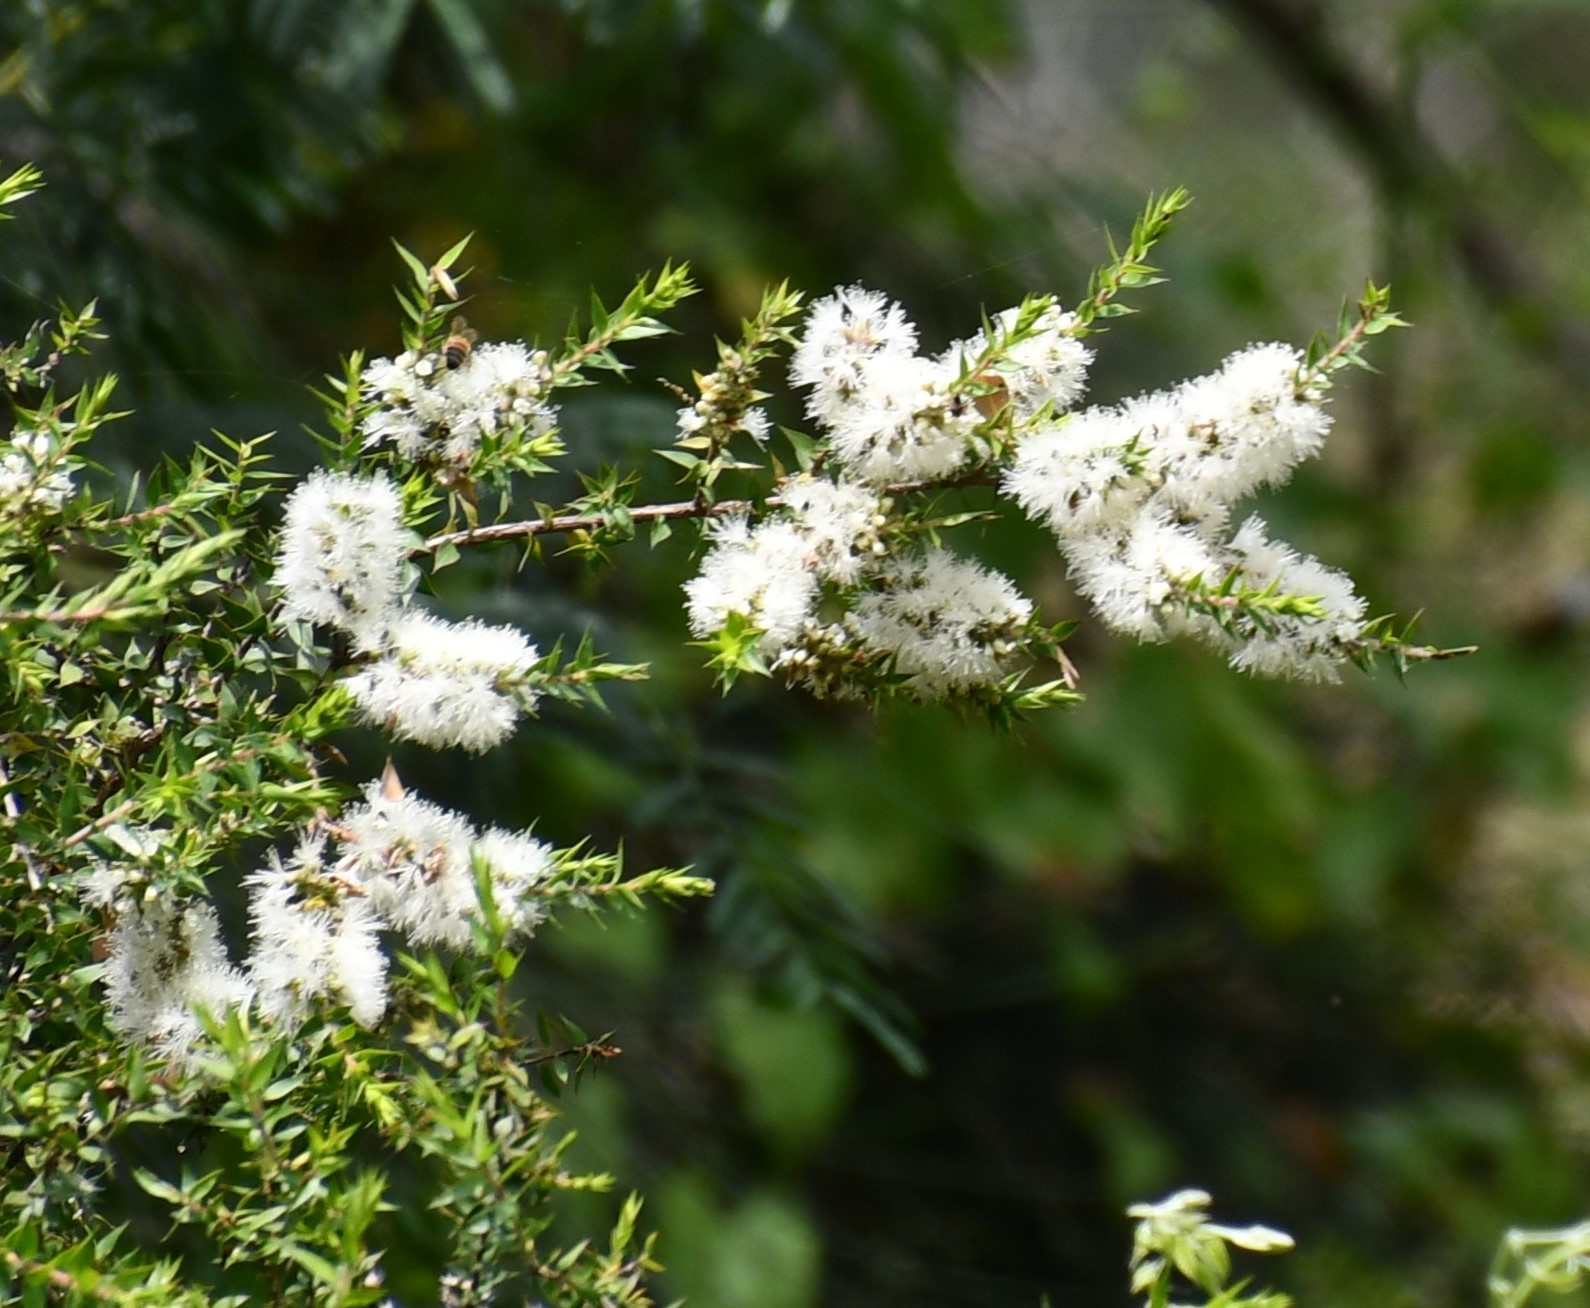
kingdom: Plantae
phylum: Tracheophyta
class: Magnoliopsida
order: Myrtales
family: Myrtaceae
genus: Melaleuca
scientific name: Melaleuca styphelioides
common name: Prickly paperbark
